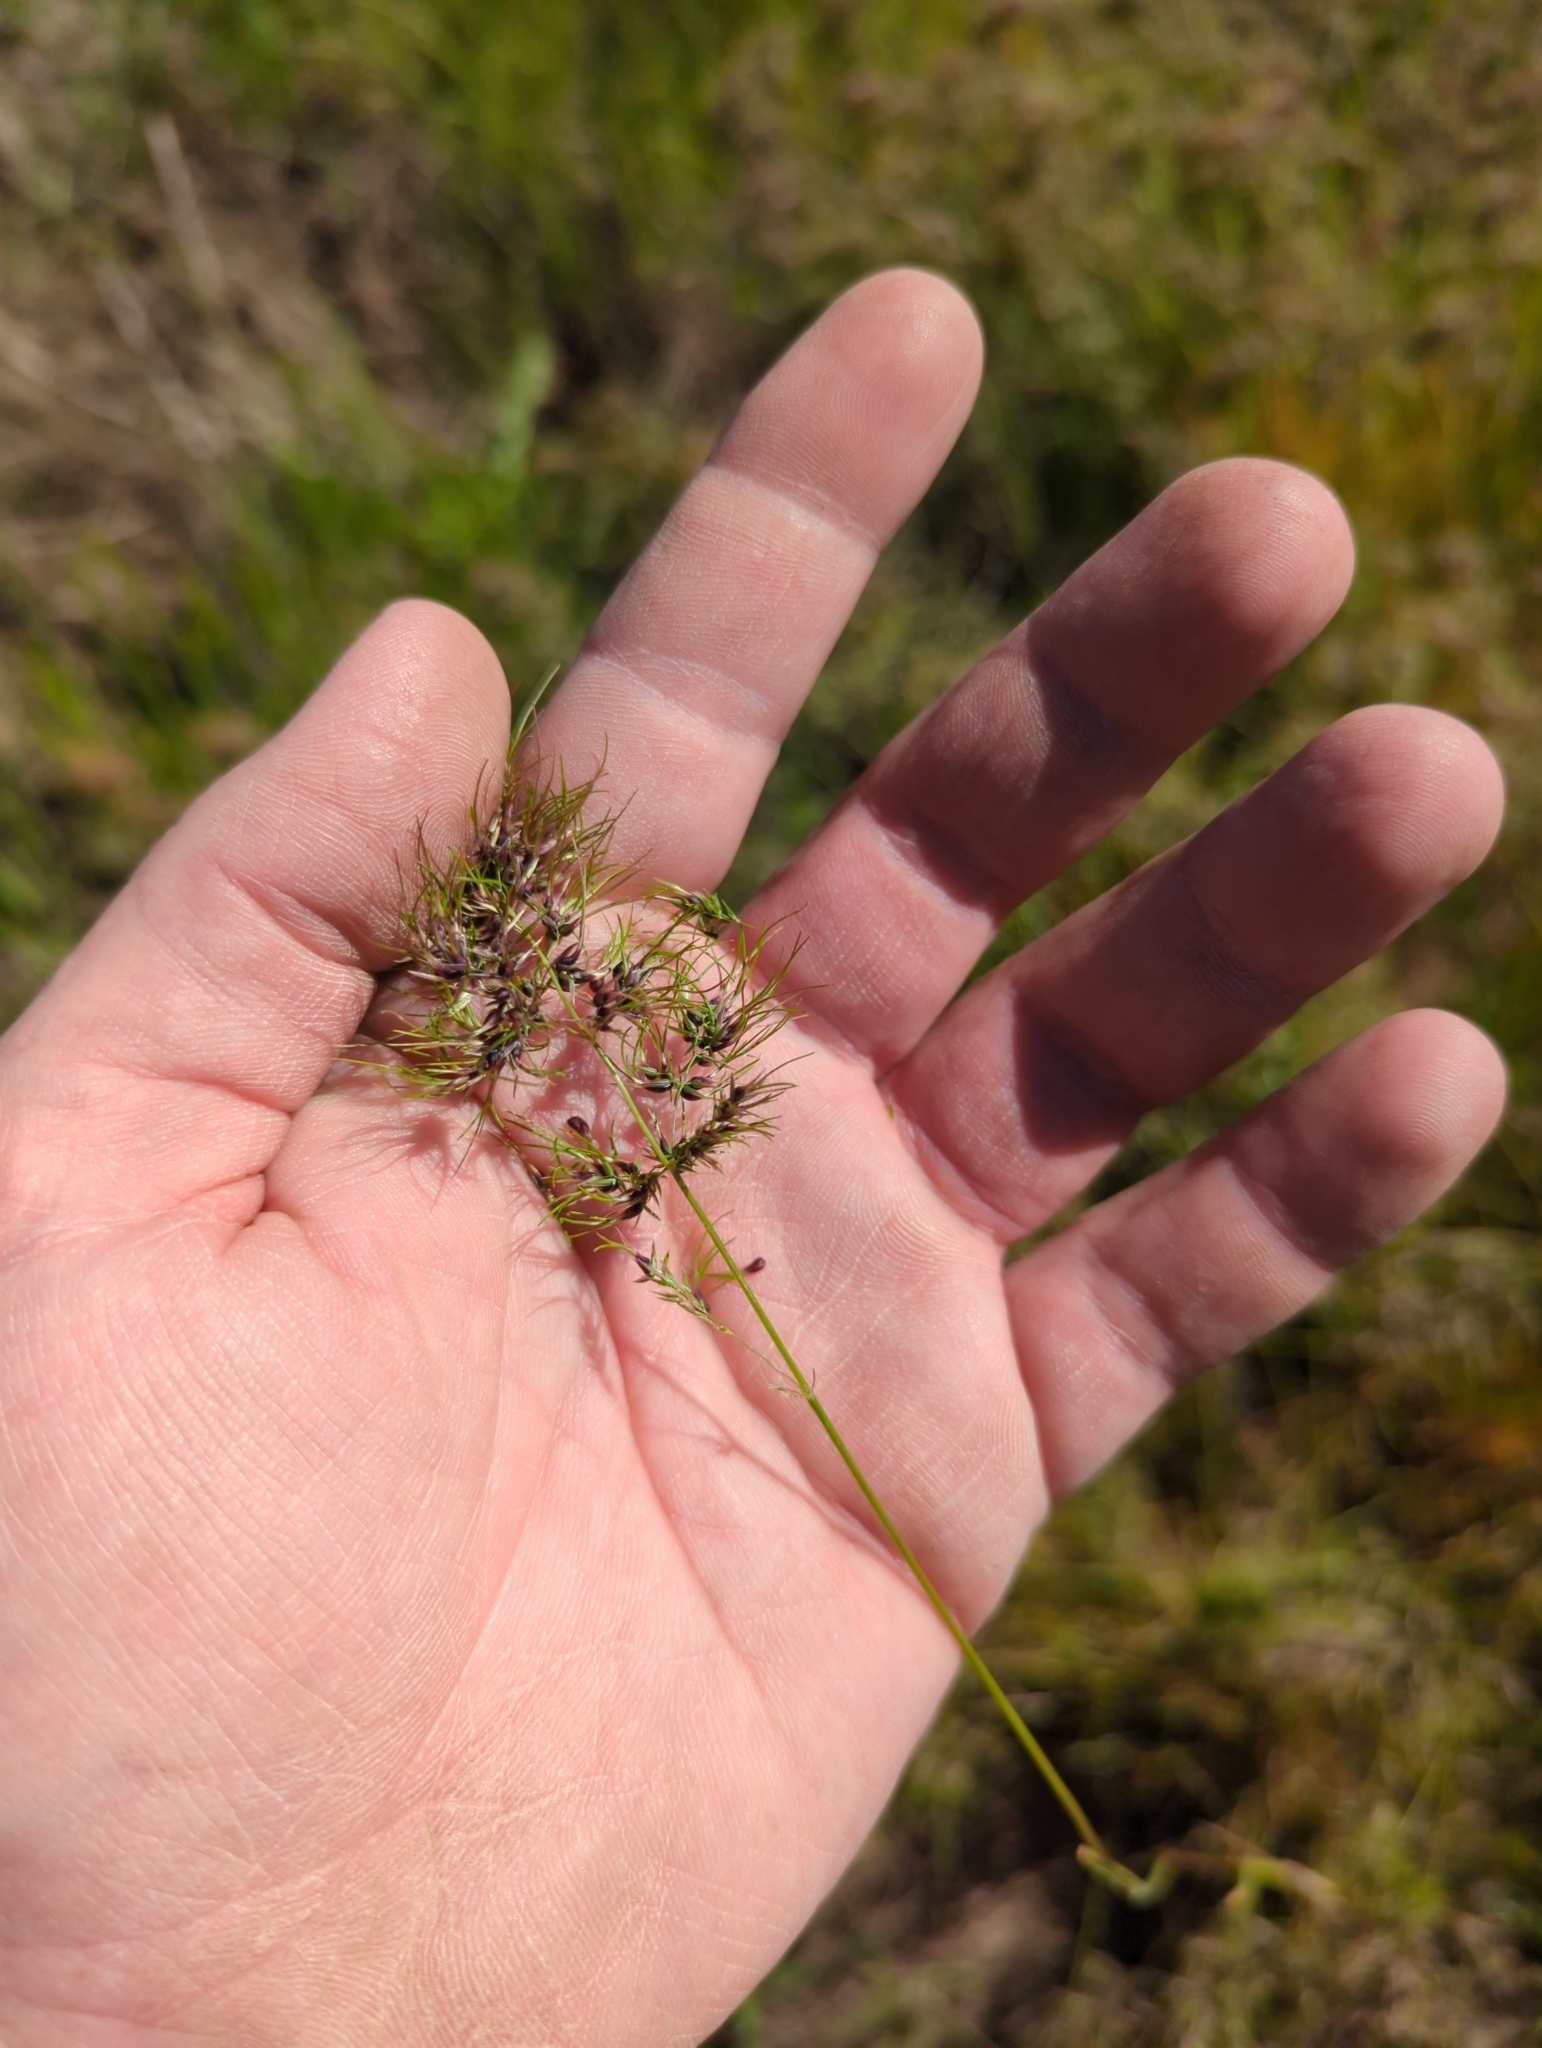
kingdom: Plantae
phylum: Tracheophyta
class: Liliopsida
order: Poales
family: Poaceae
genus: Poa
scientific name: Poa bulbosa
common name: Bulbous bluegrass
